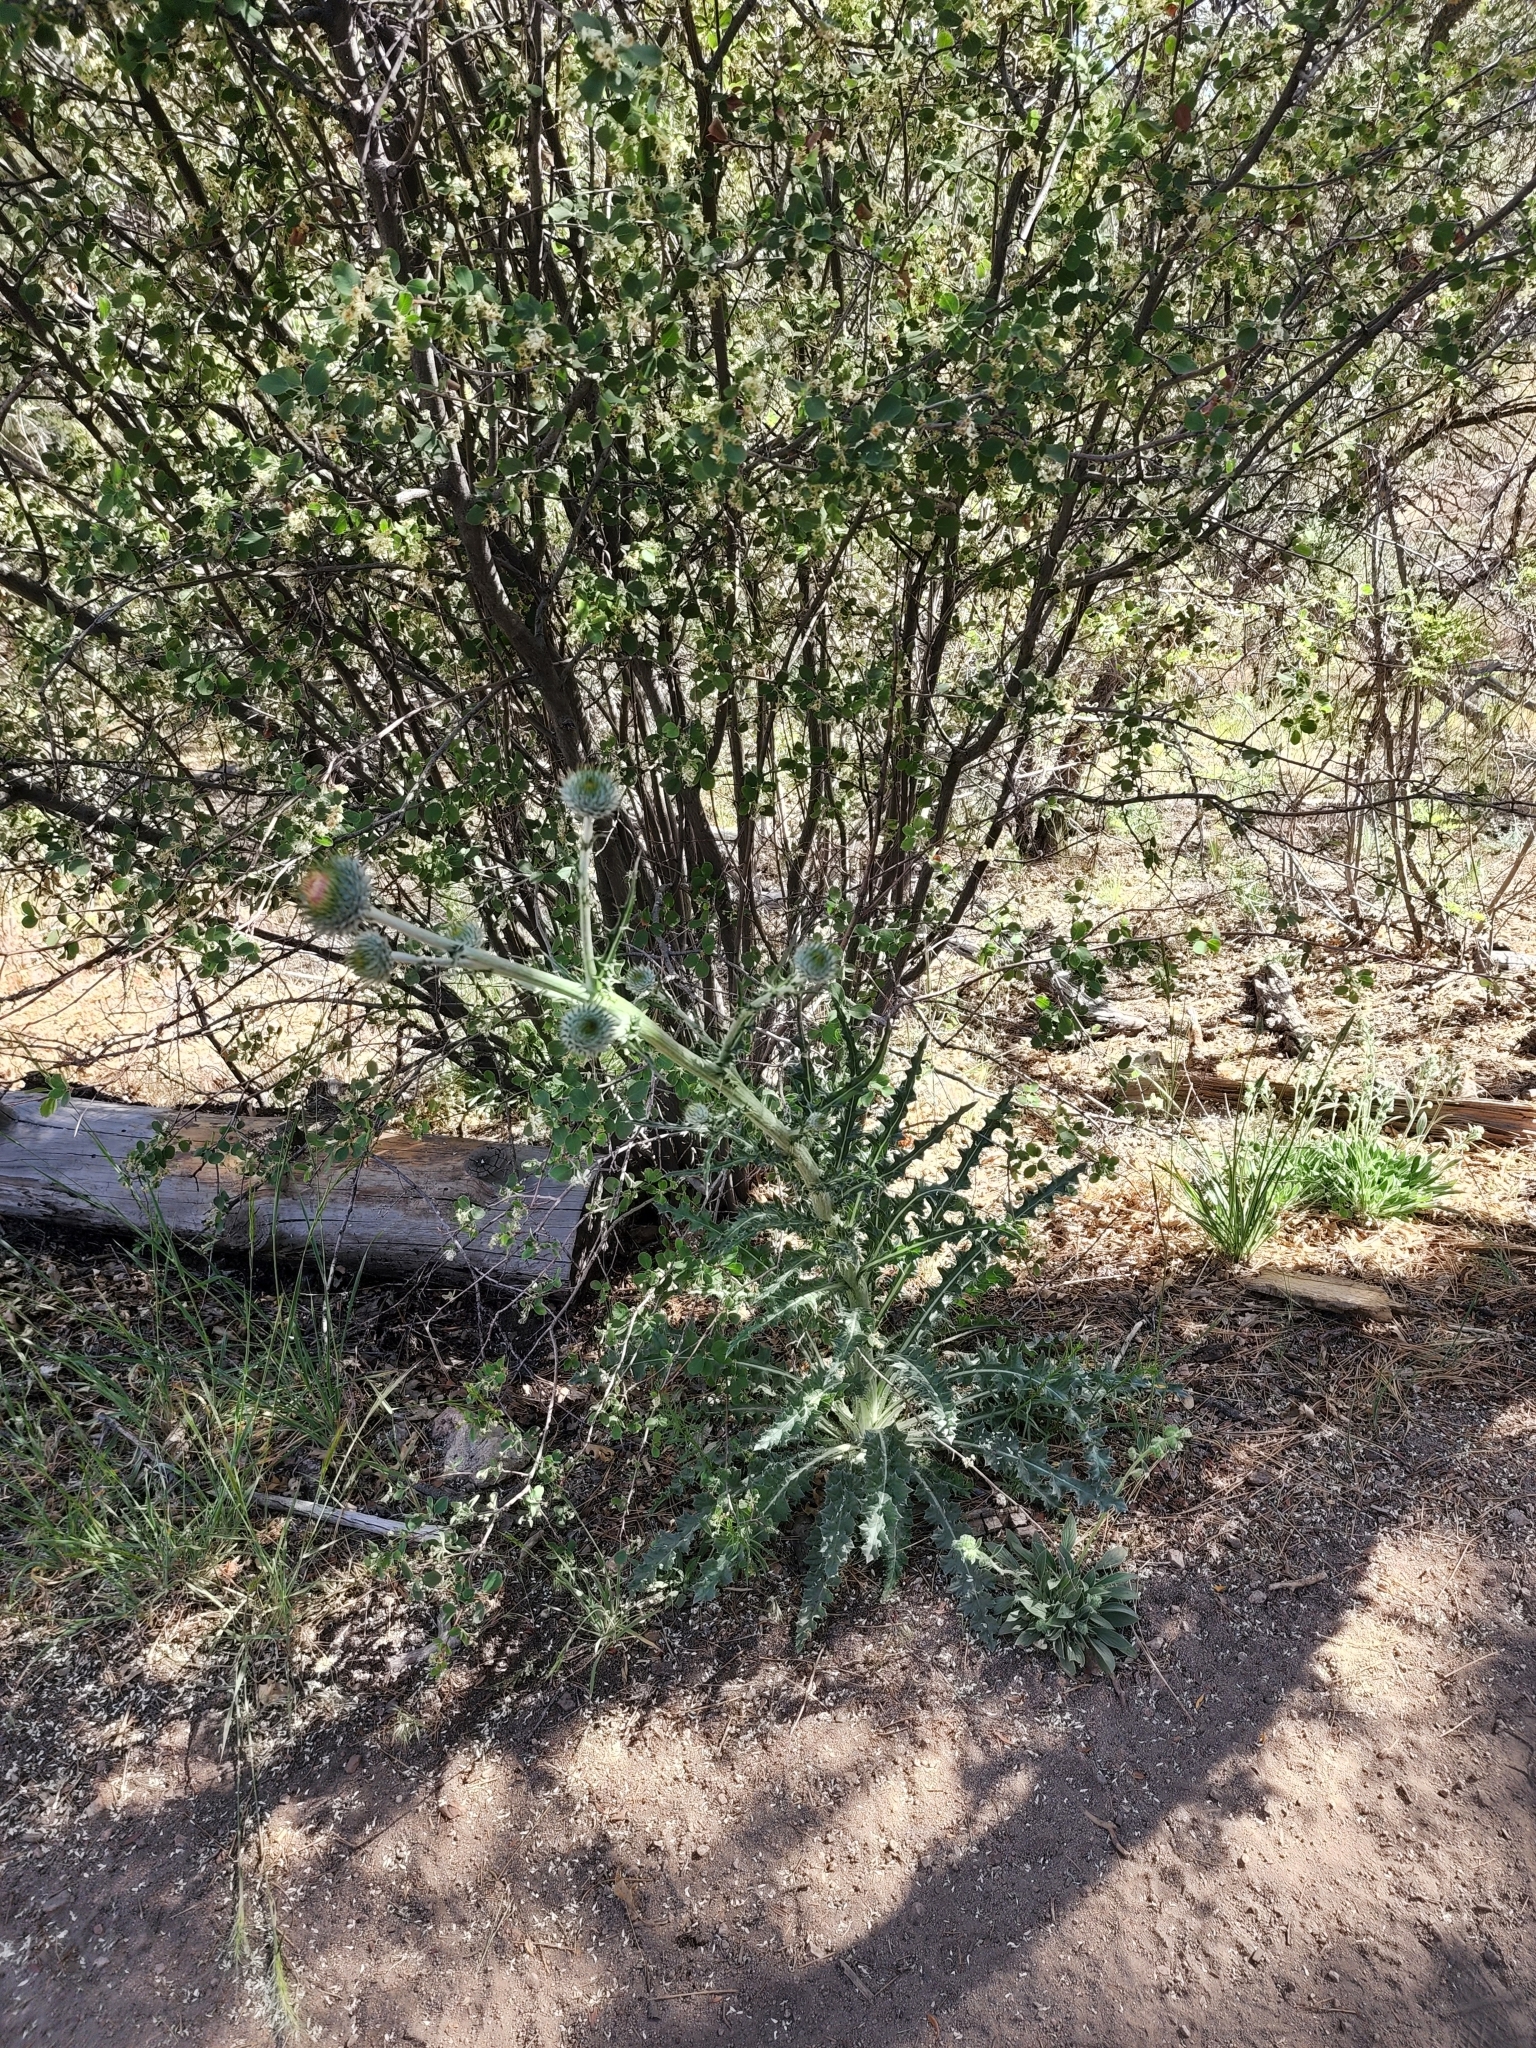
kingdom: Plantae
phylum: Tracheophyta
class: Magnoliopsida
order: Asterales
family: Asteraceae
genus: Cirsium
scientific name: Cirsium occidentale
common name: Western thistle
